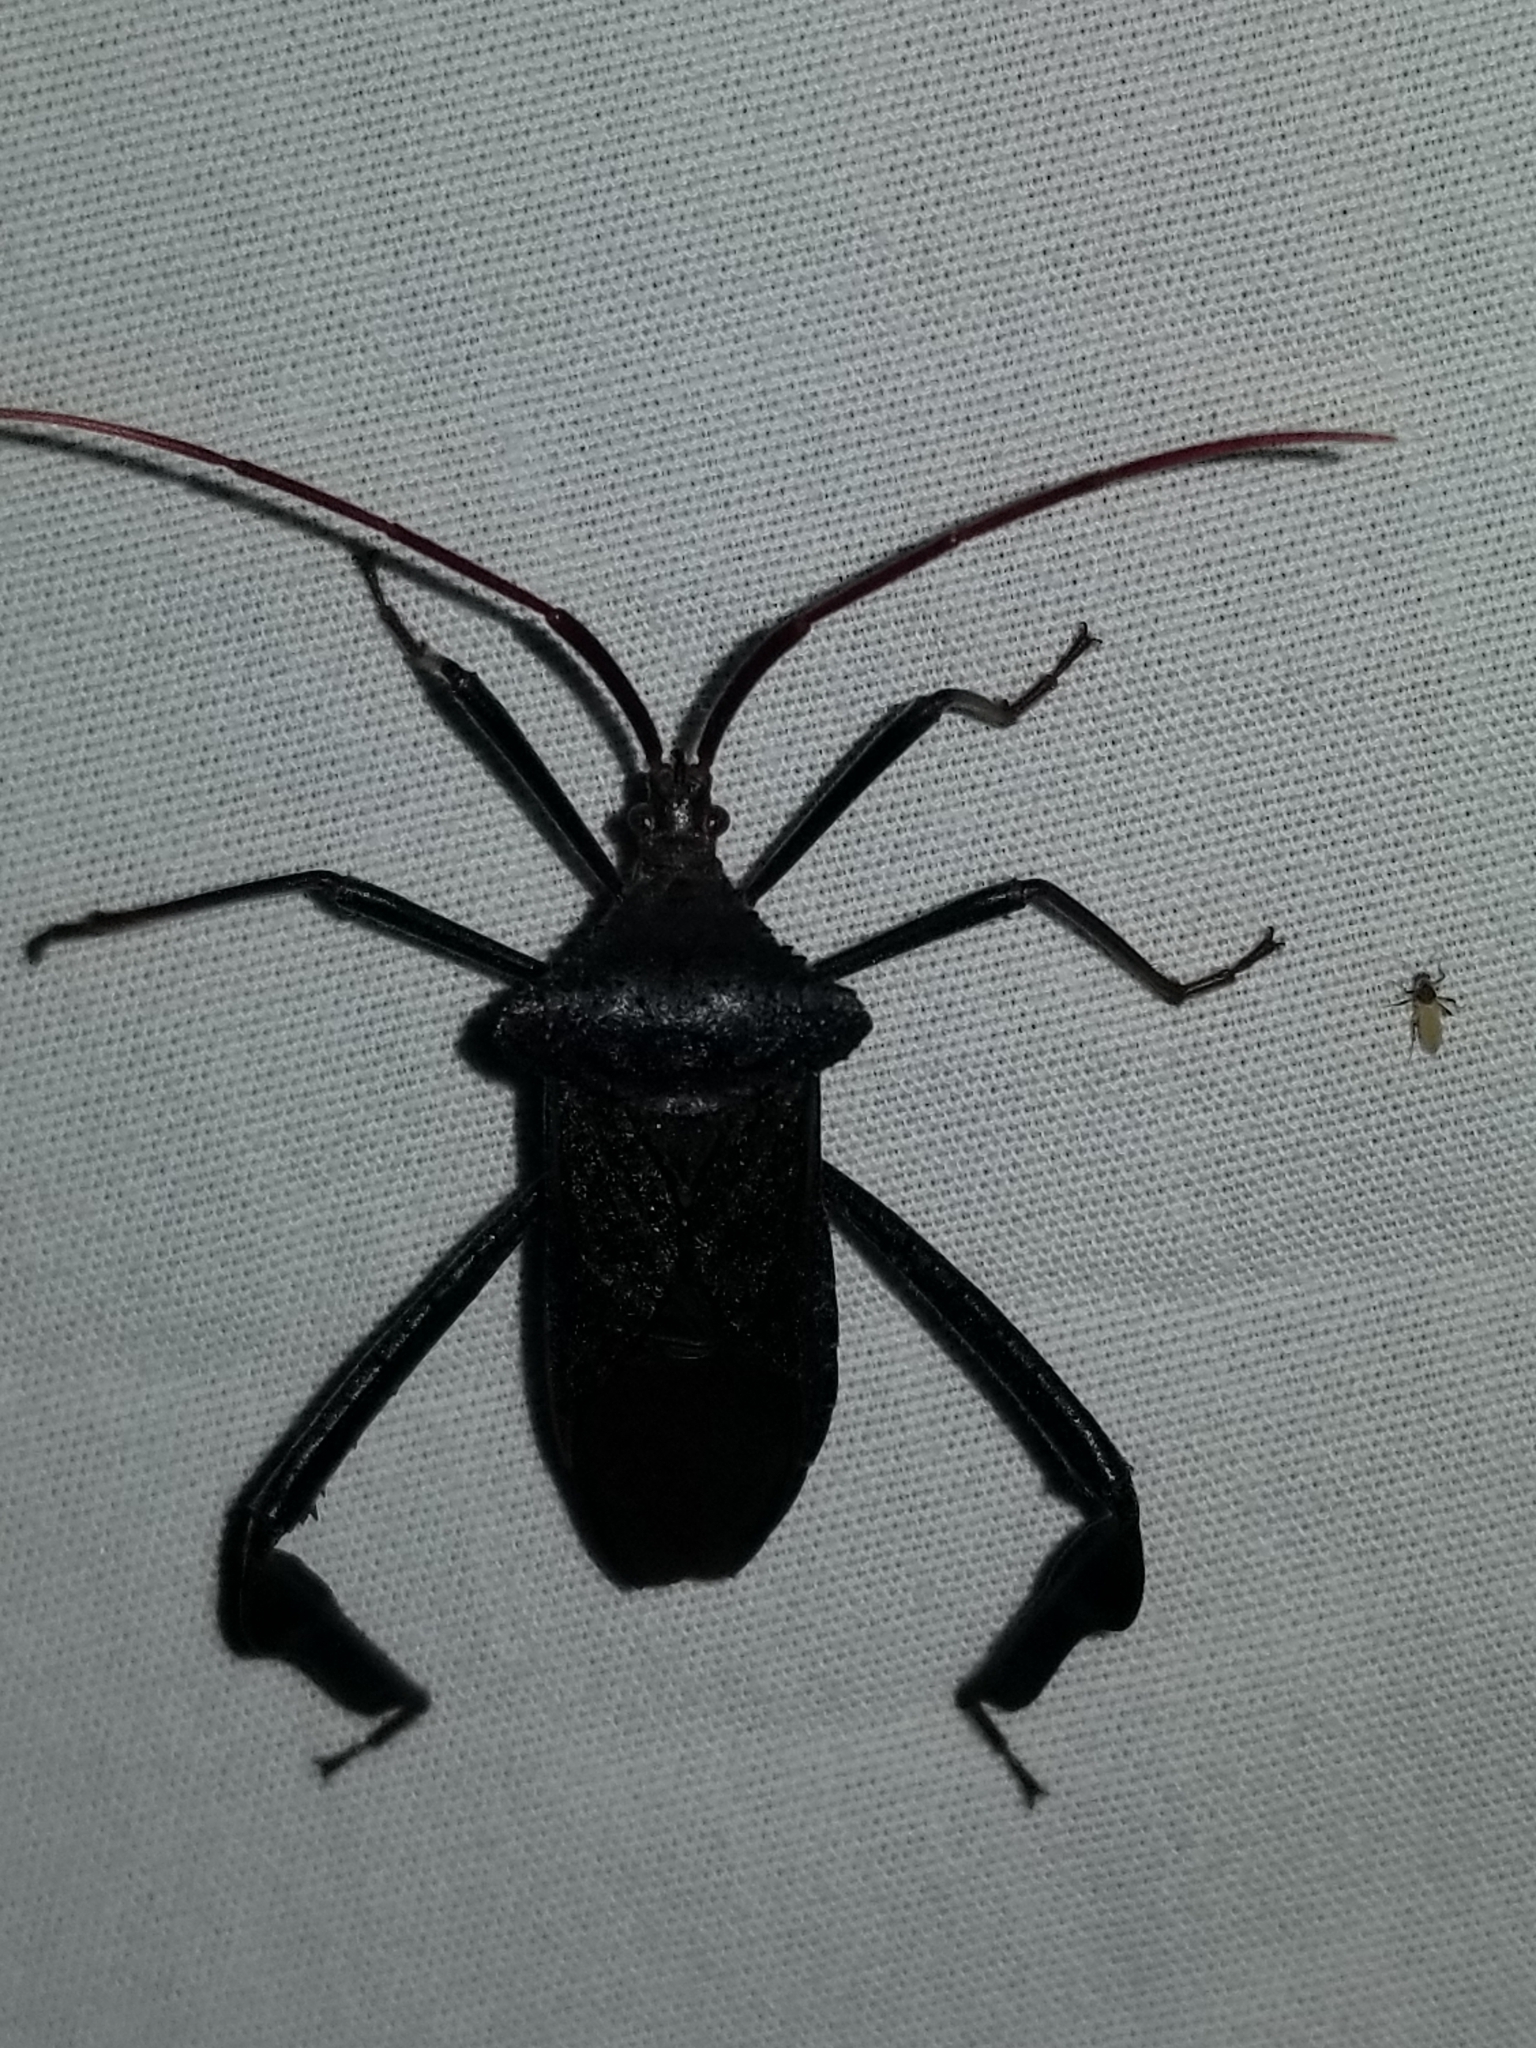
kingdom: Animalia
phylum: Arthropoda
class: Insecta
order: Hemiptera
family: Coreidae
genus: Acanthocephala
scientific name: Acanthocephala declivis
